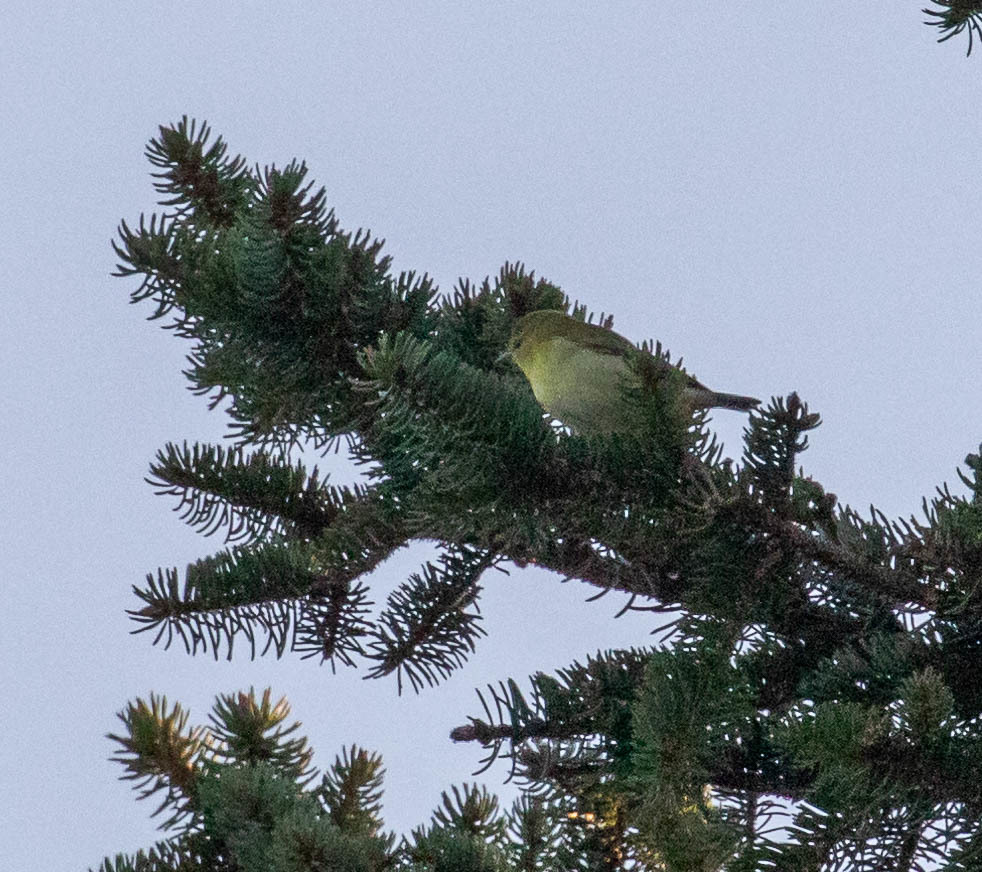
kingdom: Animalia
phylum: Chordata
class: Aves
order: Passeriformes
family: Parulidae
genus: Leiothlypis
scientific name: Leiothlypis peregrina
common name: Tennessee warbler
